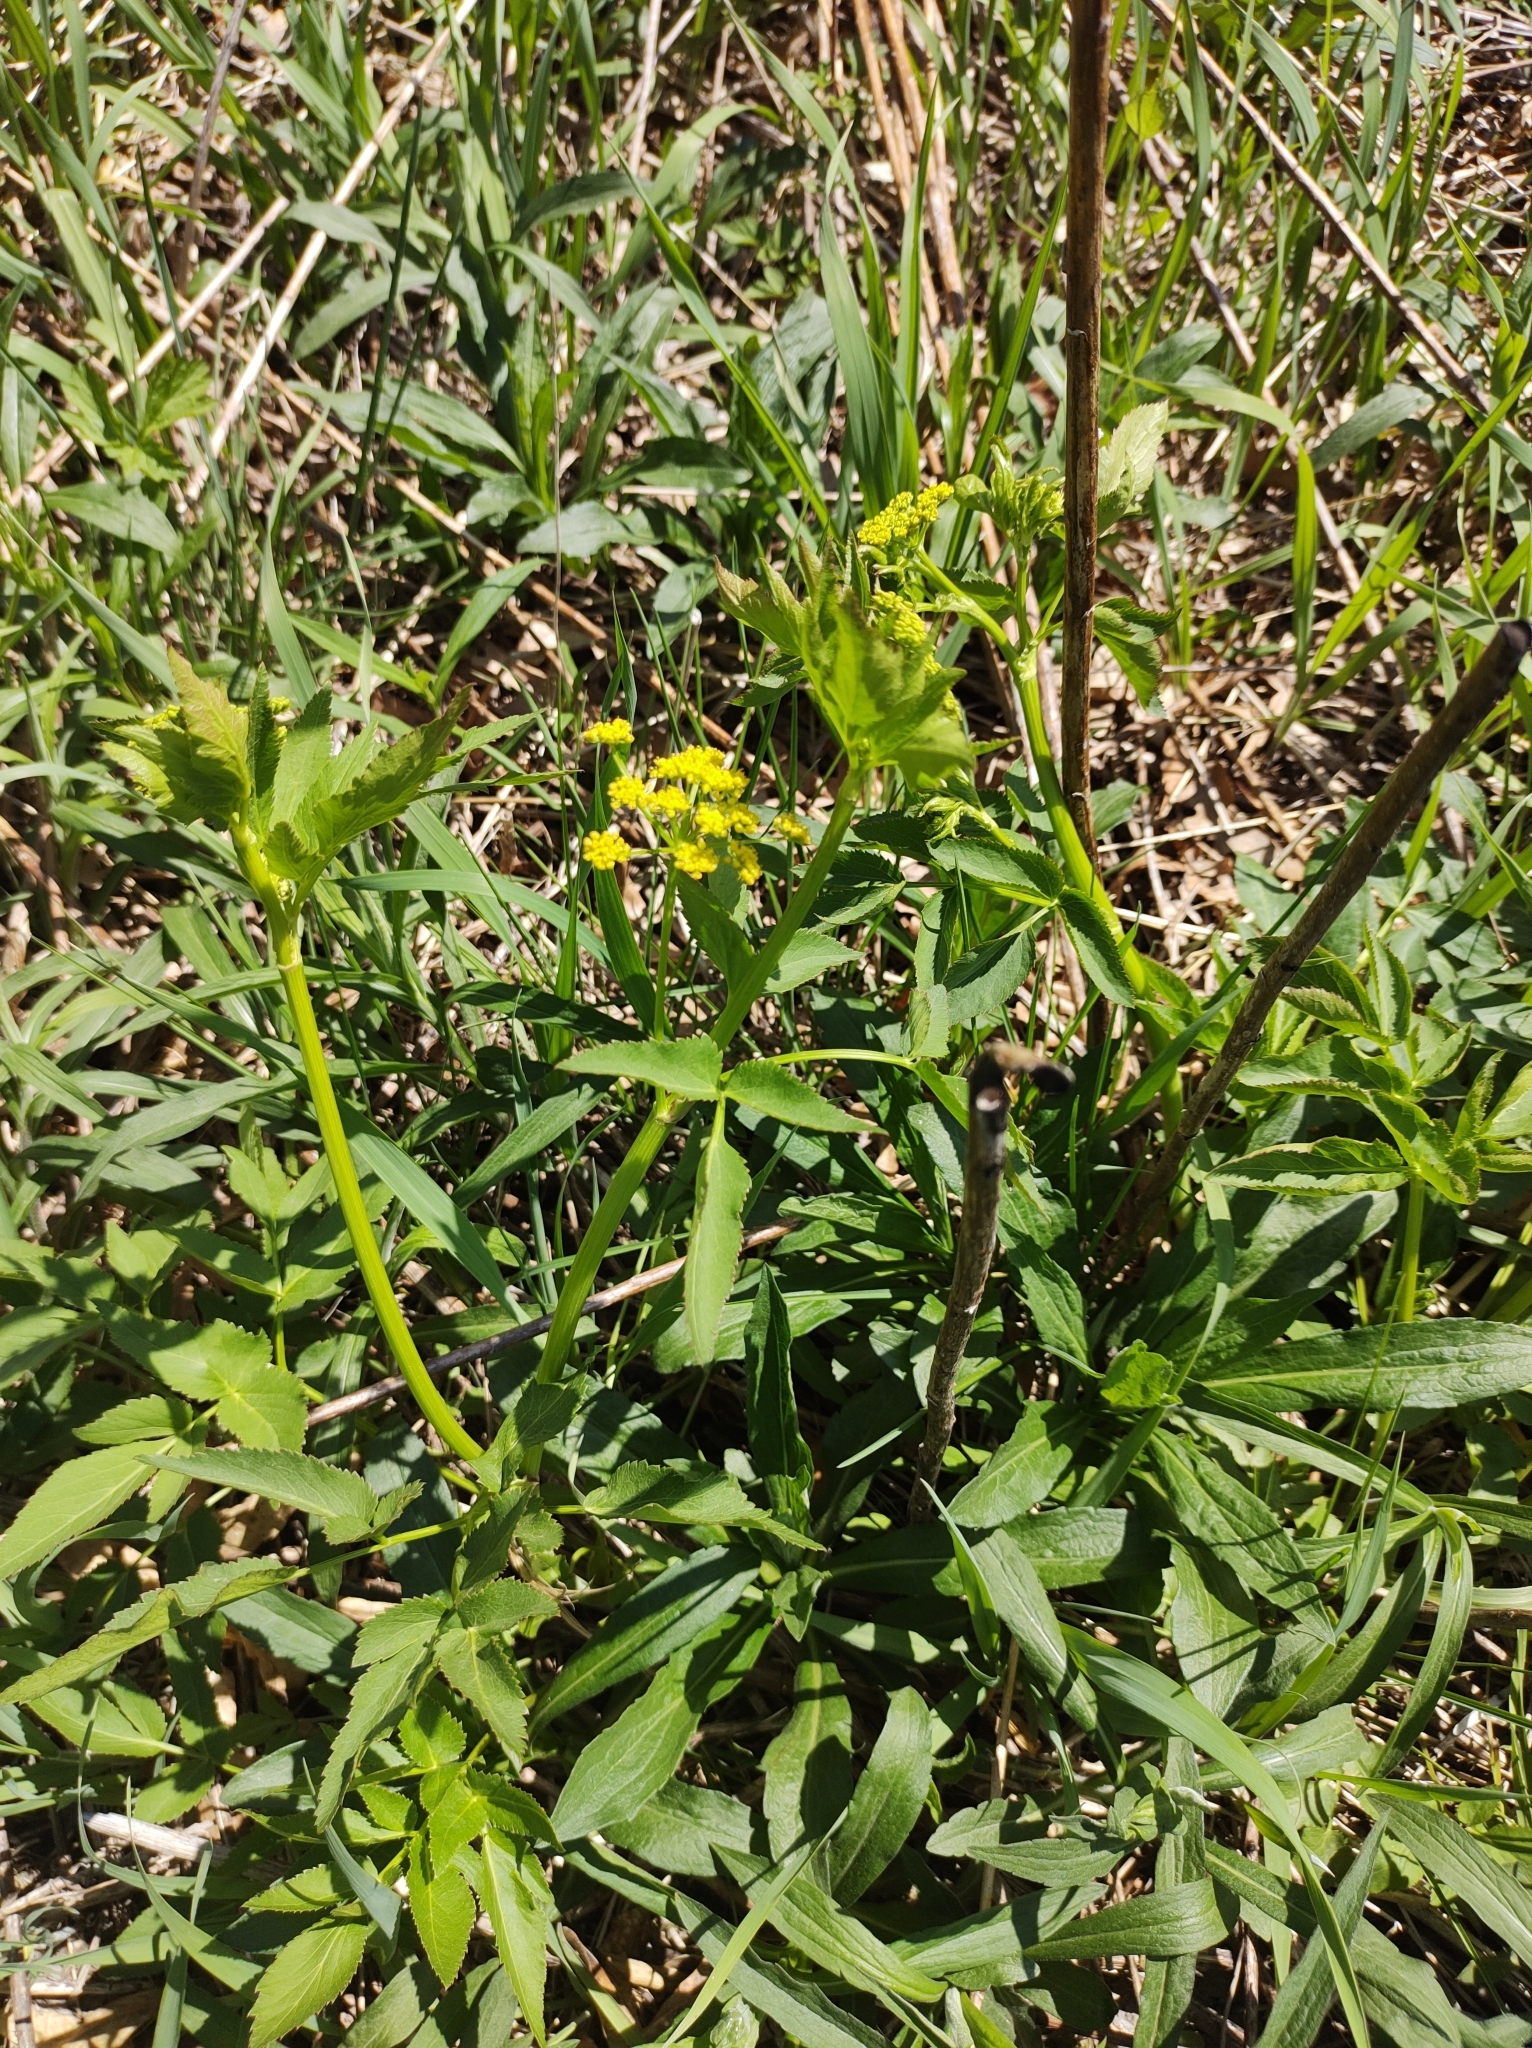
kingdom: Plantae
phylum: Tracheophyta
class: Magnoliopsida
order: Apiales
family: Apiaceae
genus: Zizia
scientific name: Zizia aurea
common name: Golden alexanders
